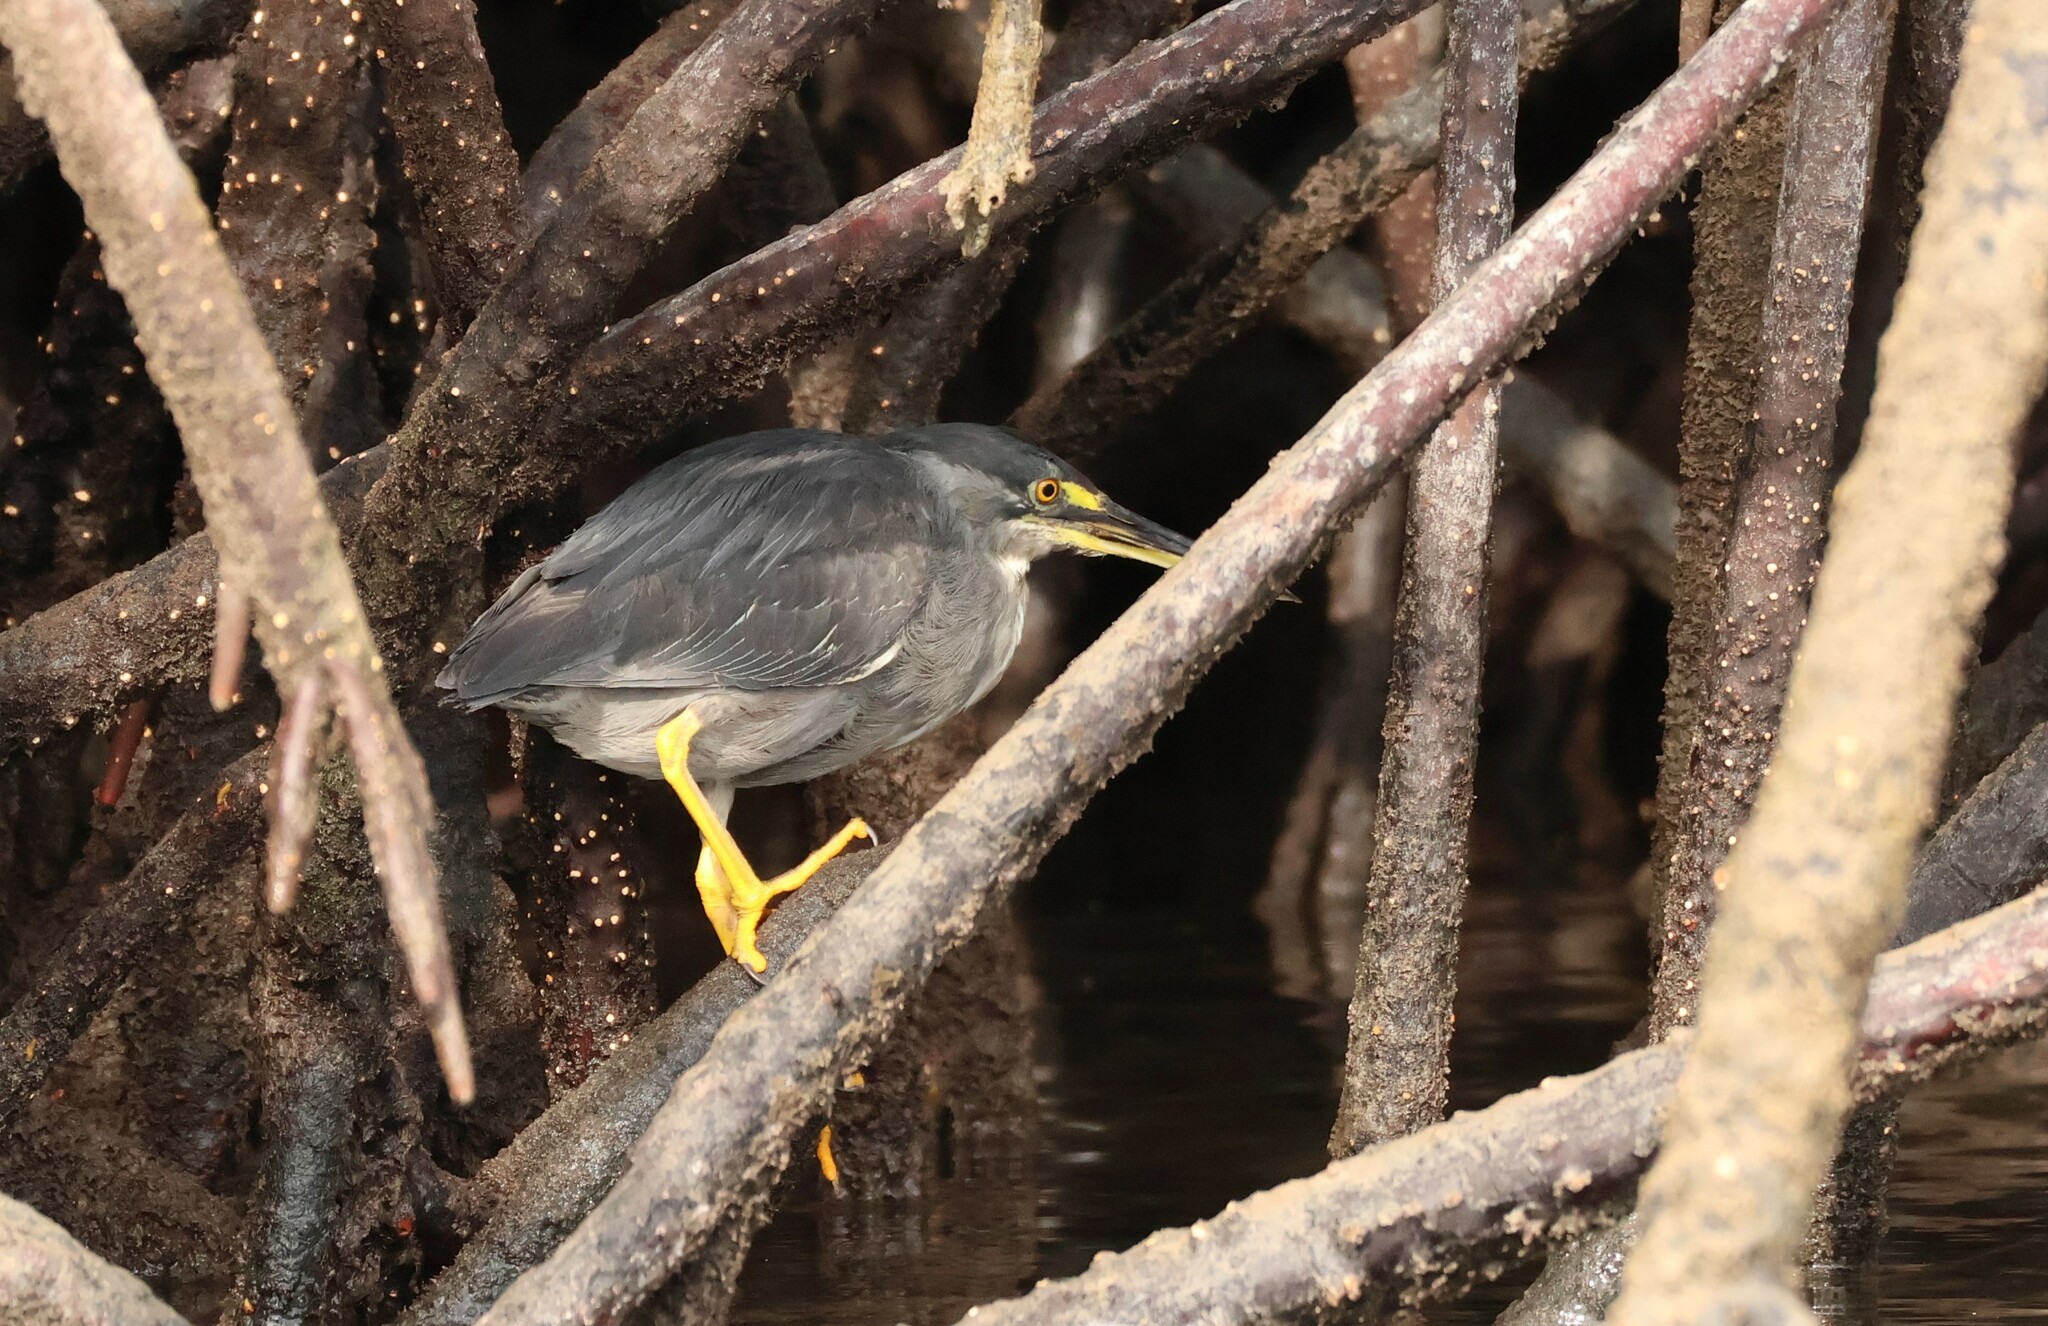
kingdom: Animalia
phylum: Chordata
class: Aves
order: Pelecaniformes
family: Ardeidae
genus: Butorides
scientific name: Butorides striata
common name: Striated heron
